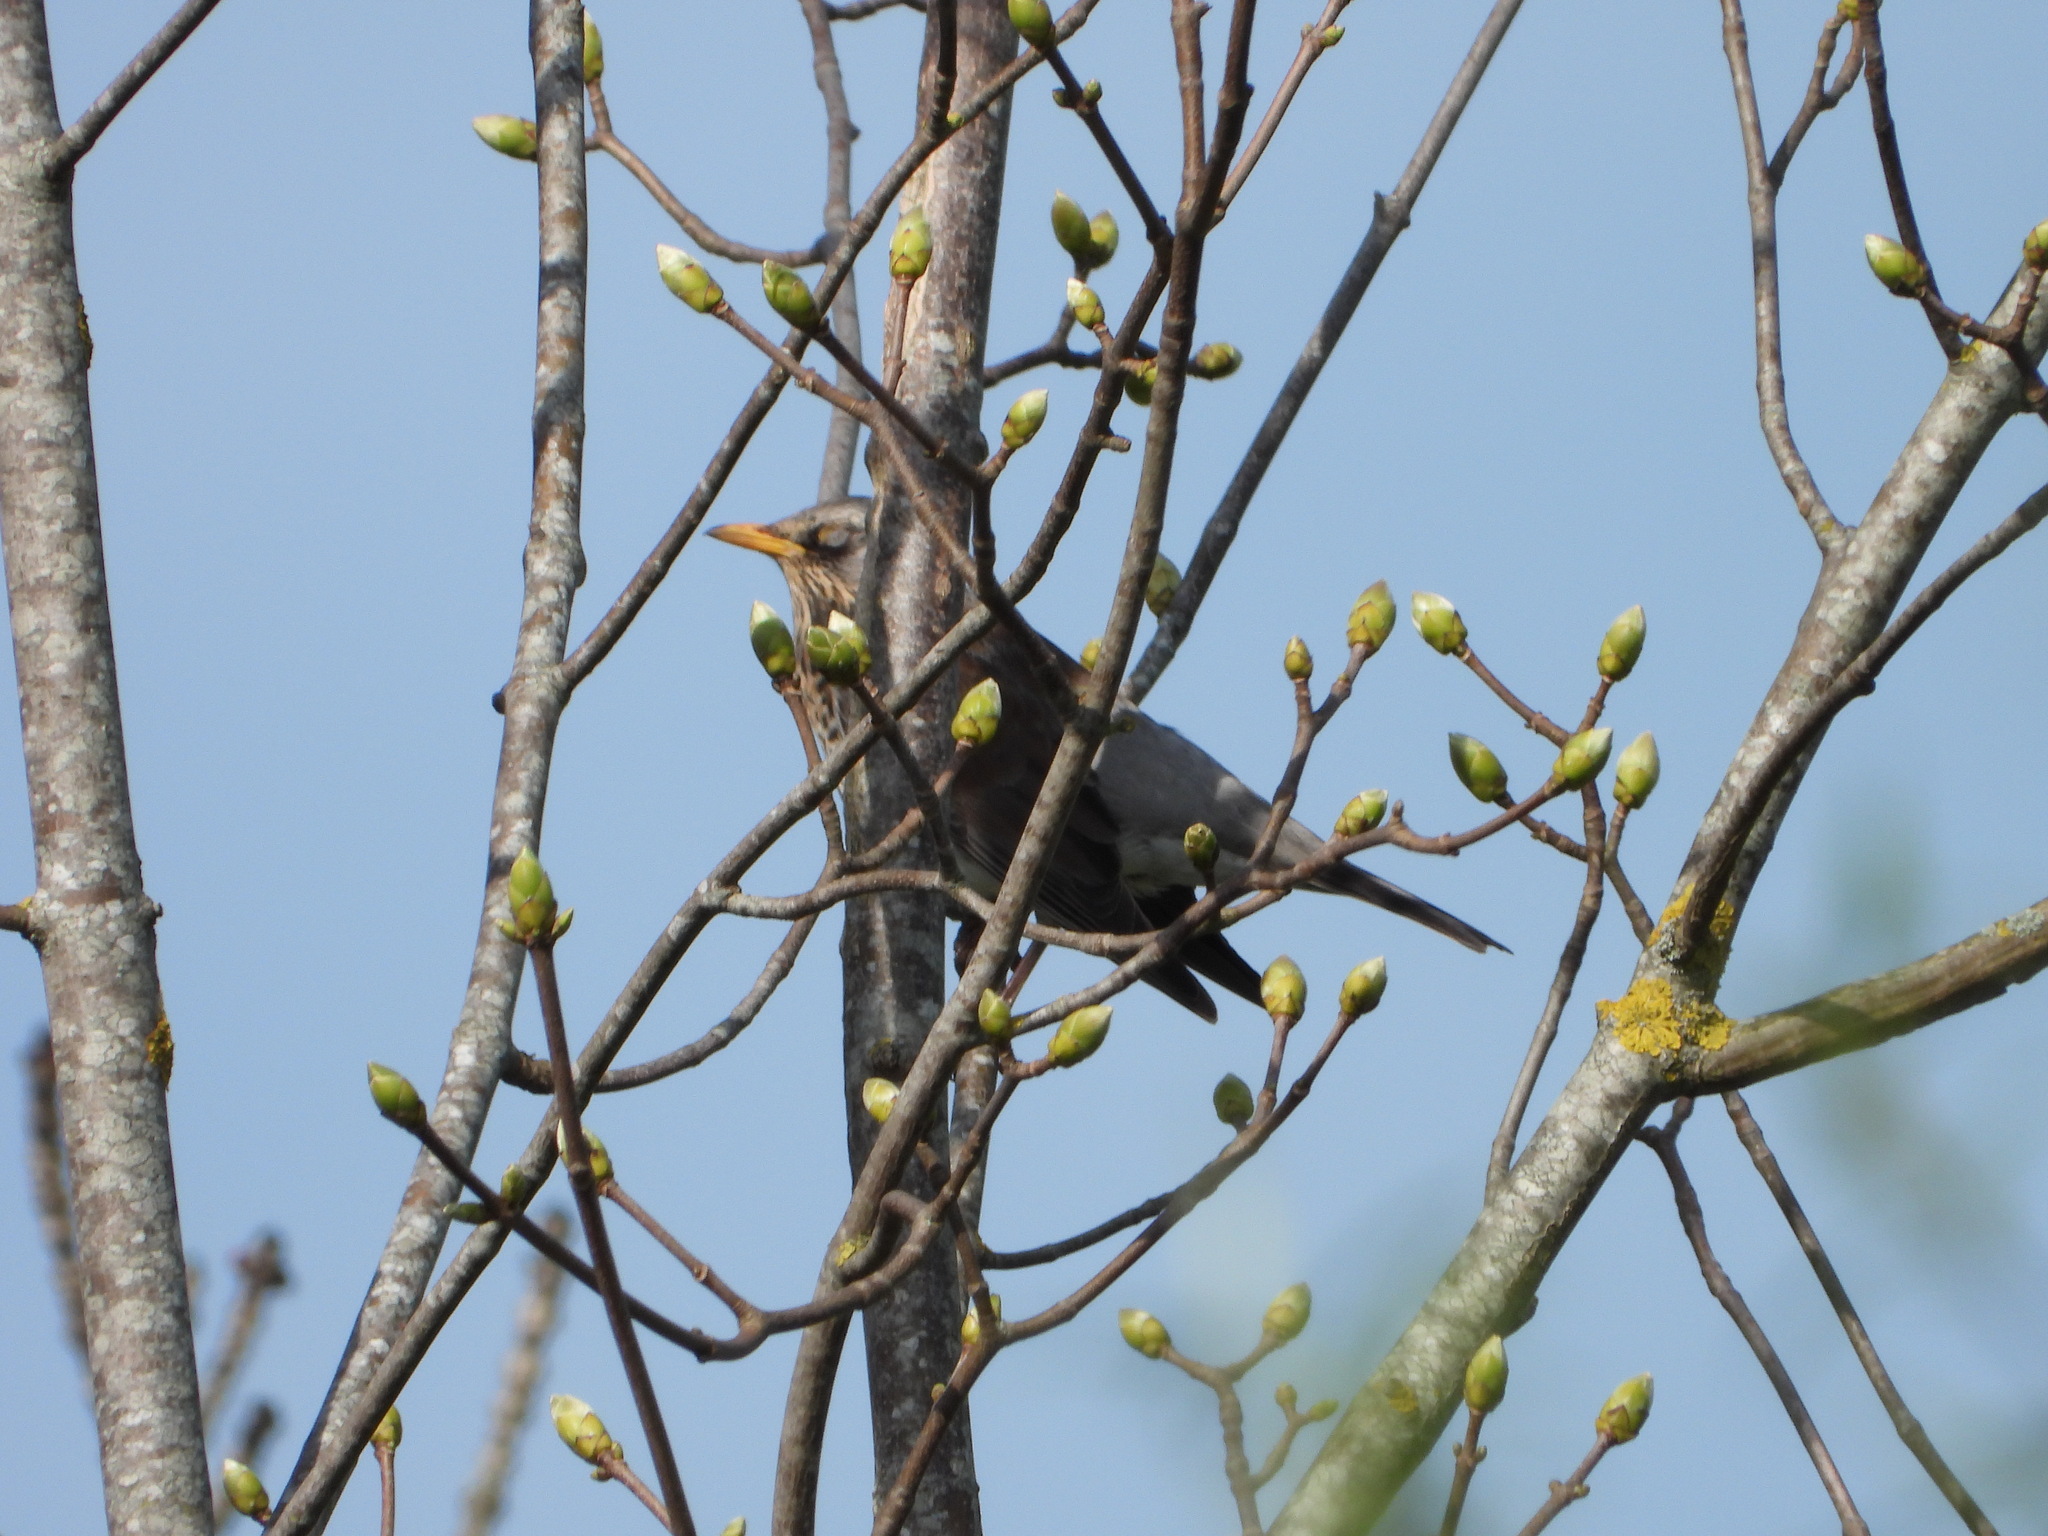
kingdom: Animalia
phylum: Chordata
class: Aves
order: Passeriformes
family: Turdidae
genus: Turdus
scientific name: Turdus pilaris
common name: Fieldfare
